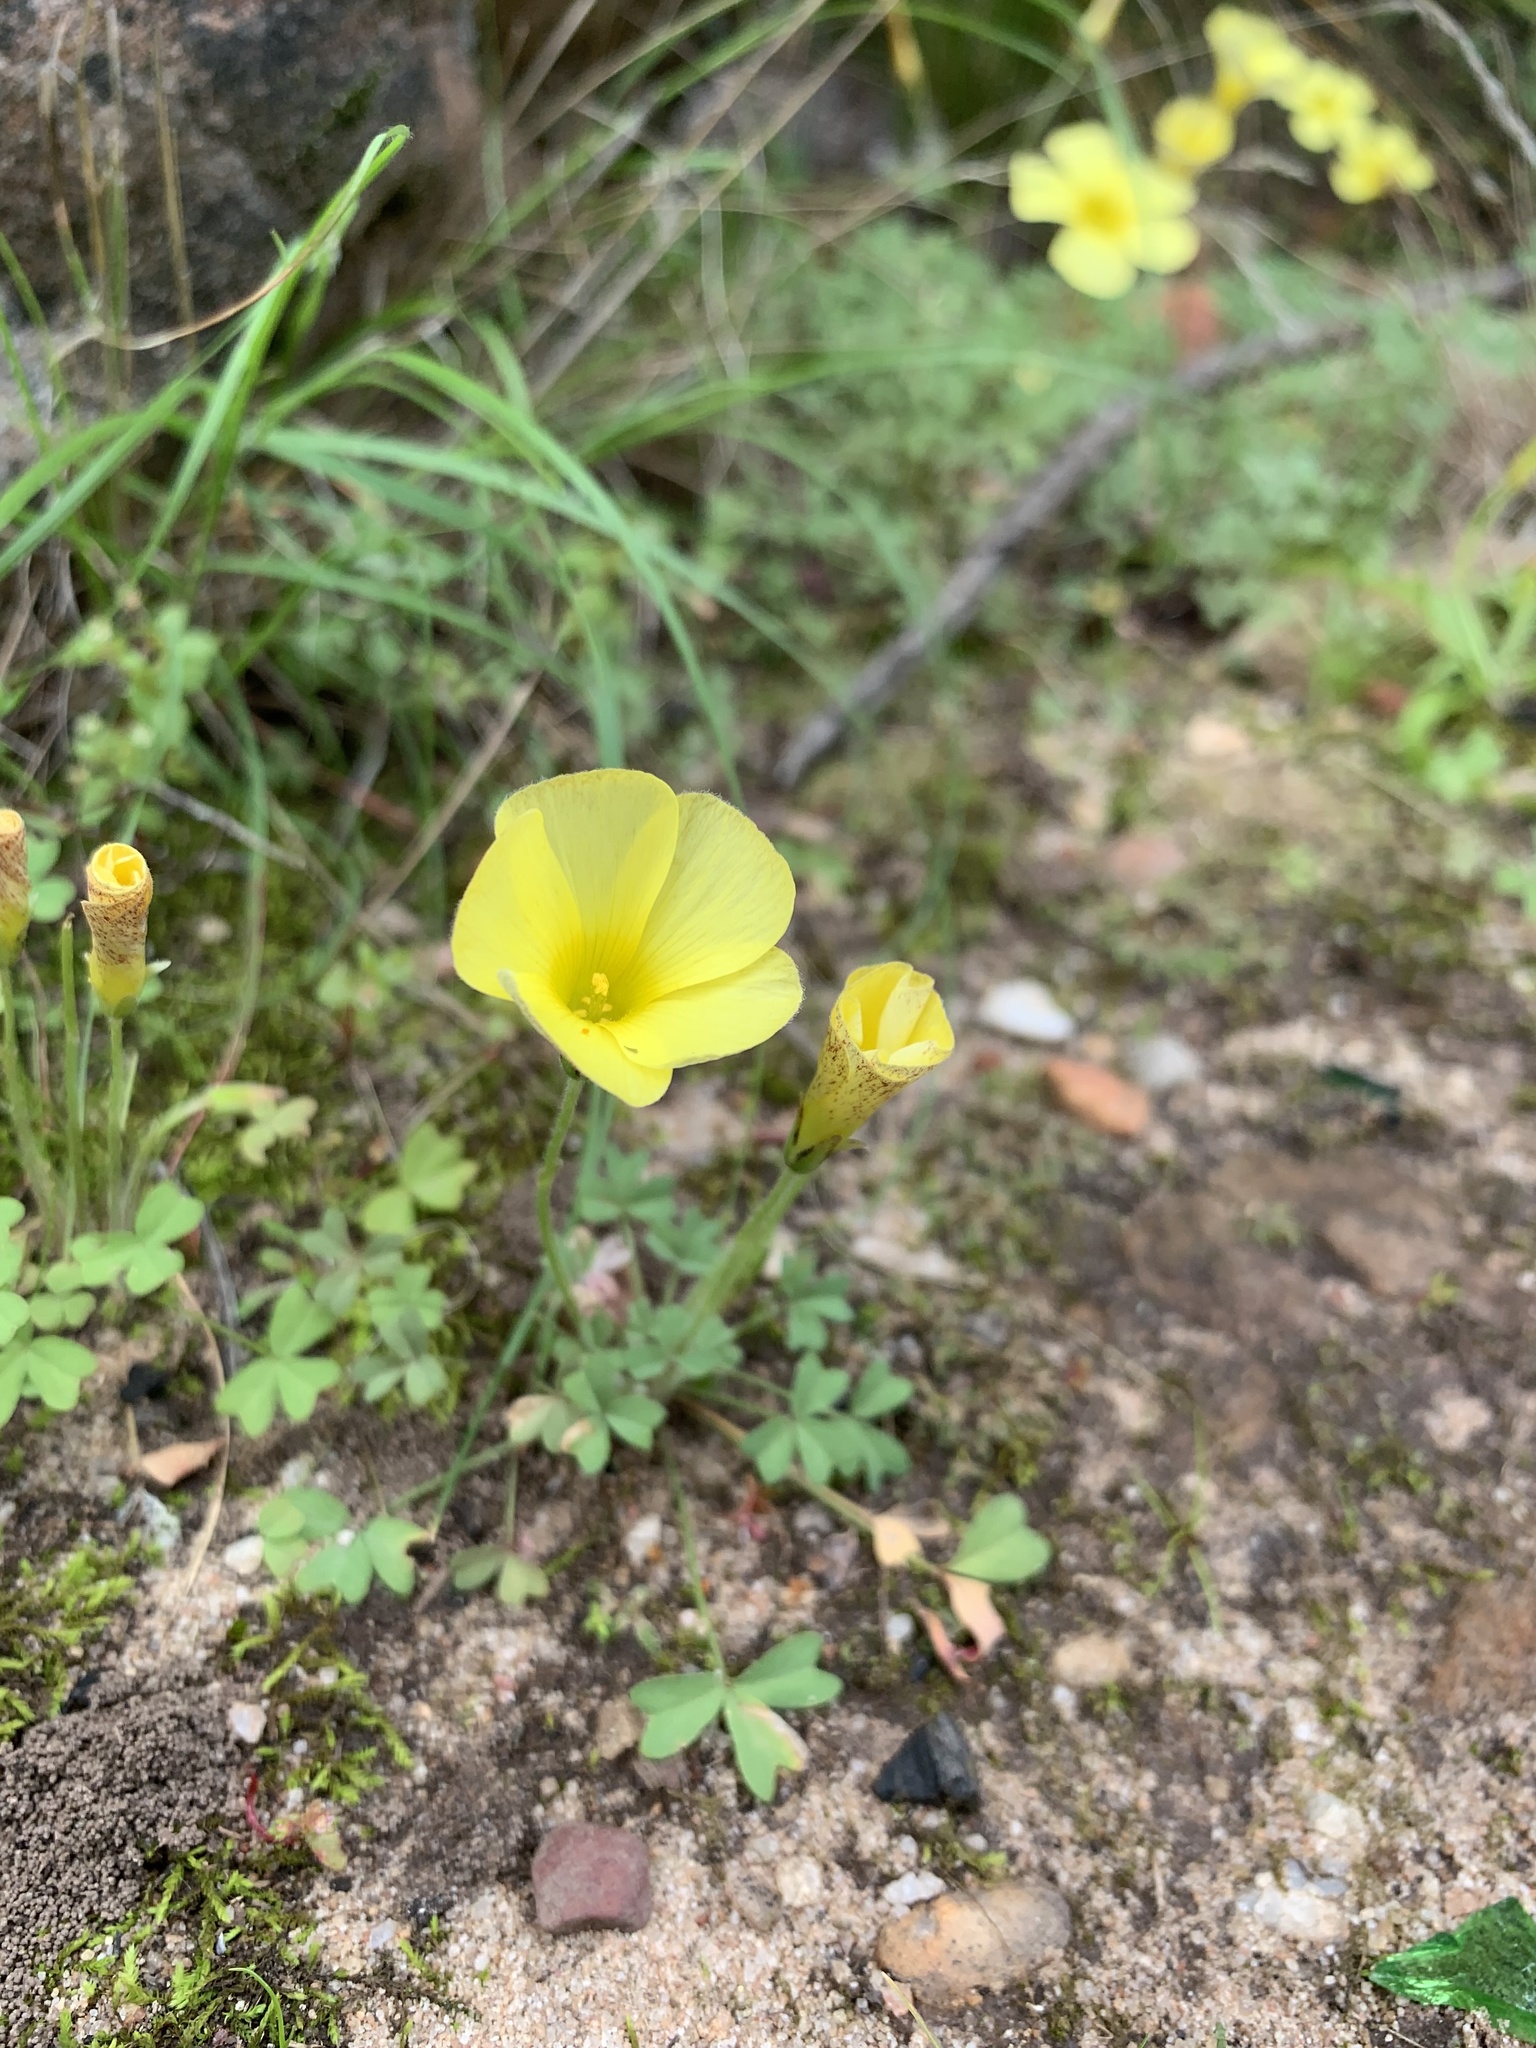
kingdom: Plantae
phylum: Tracheophyta
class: Magnoliopsida
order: Oxalidales
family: Oxalidaceae
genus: Oxalis
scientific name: Oxalis obtusa
